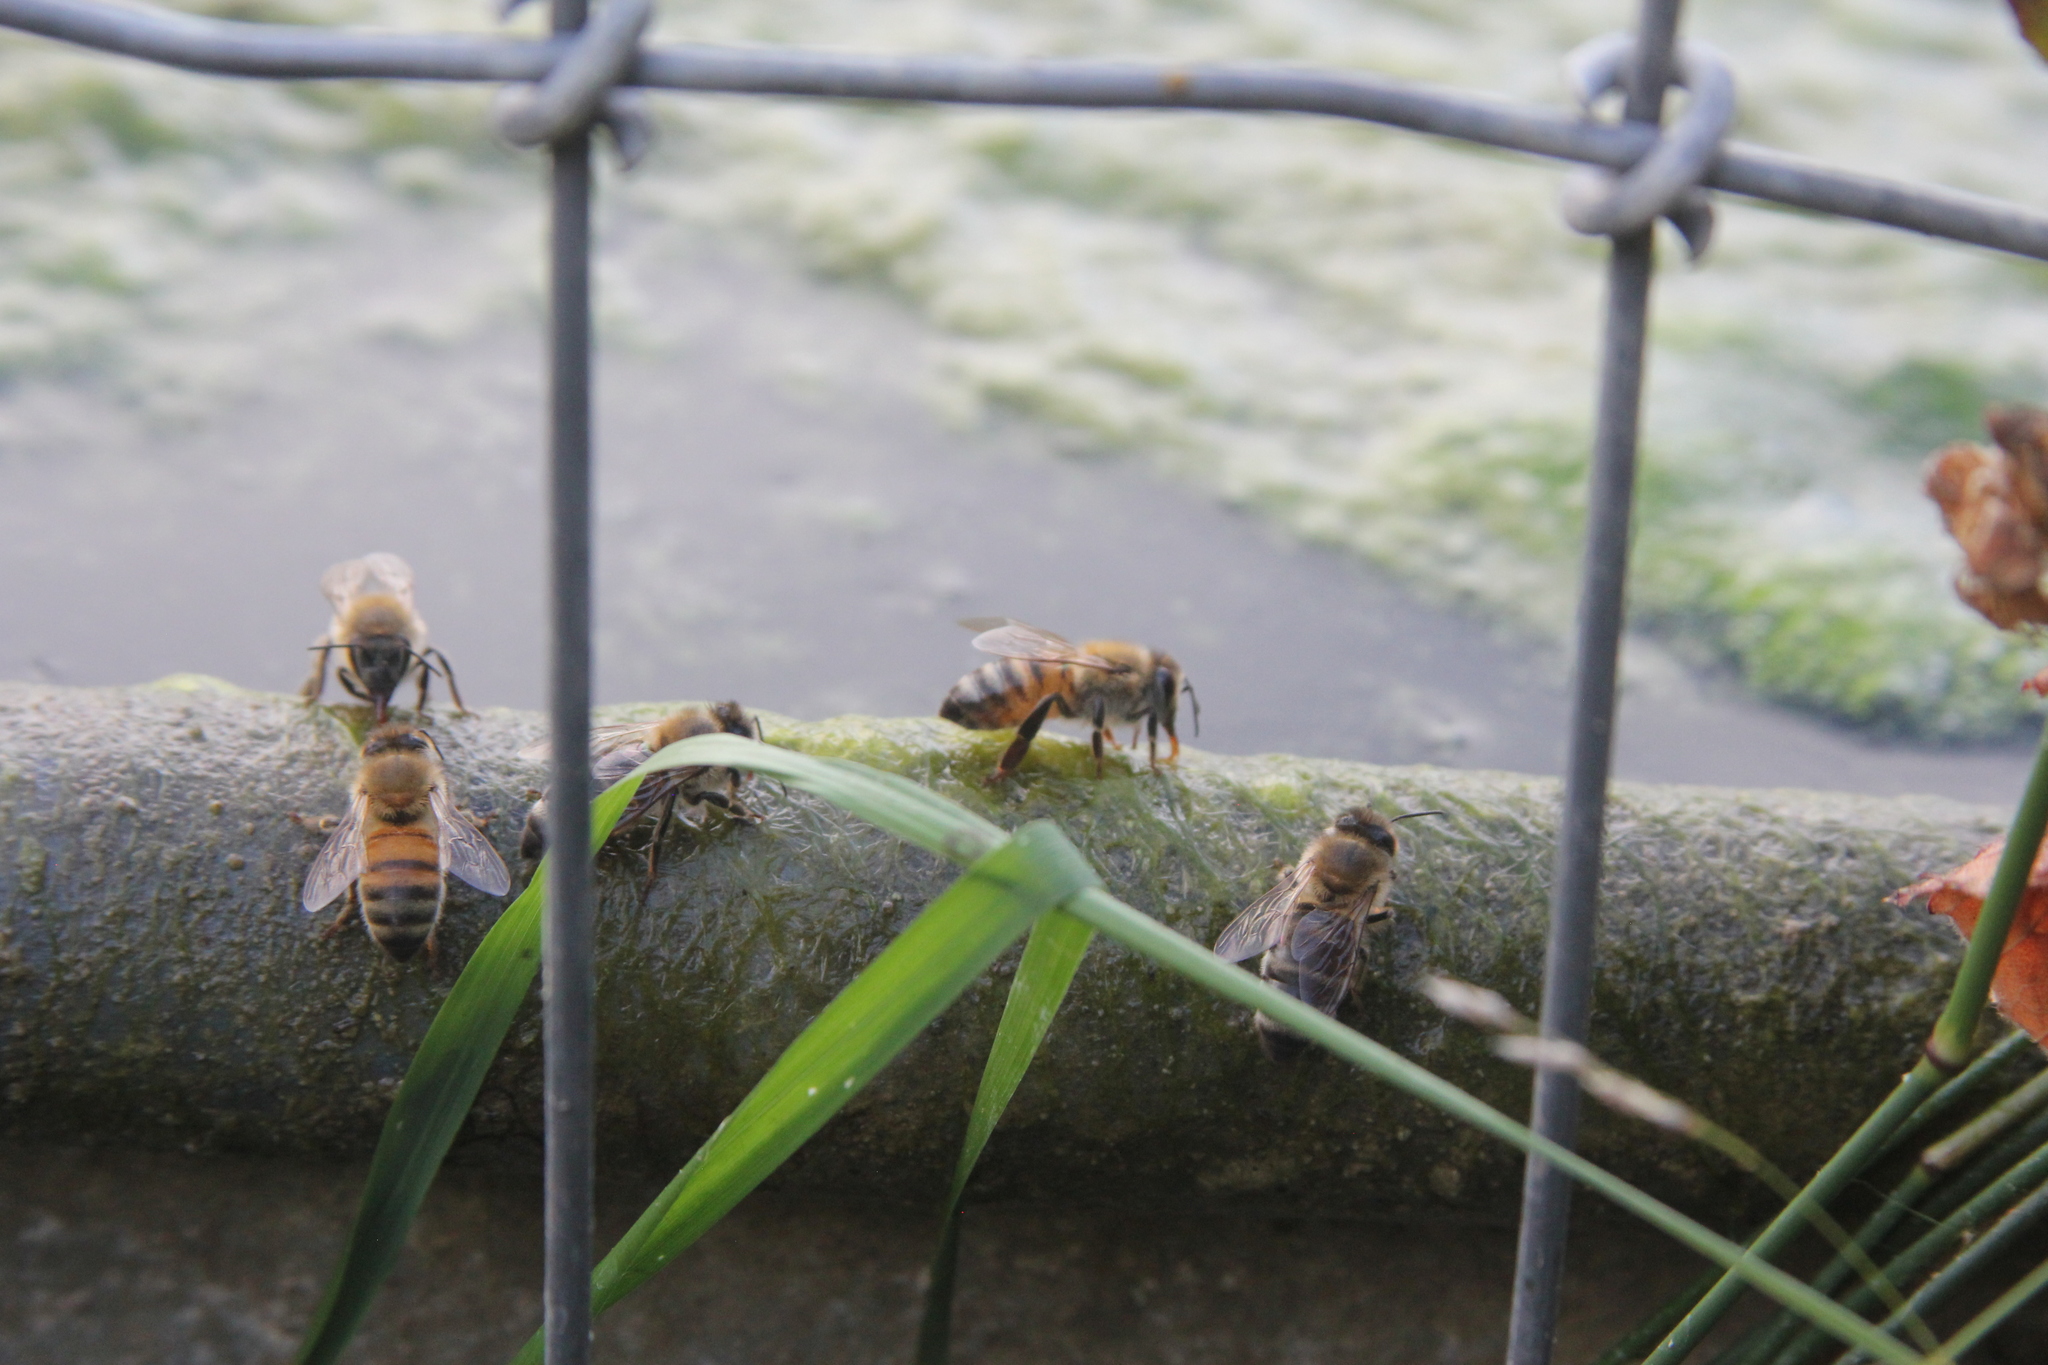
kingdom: Animalia
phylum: Arthropoda
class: Insecta
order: Hymenoptera
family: Apidae
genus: Apis
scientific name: Apis mellifera
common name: Honey bee
